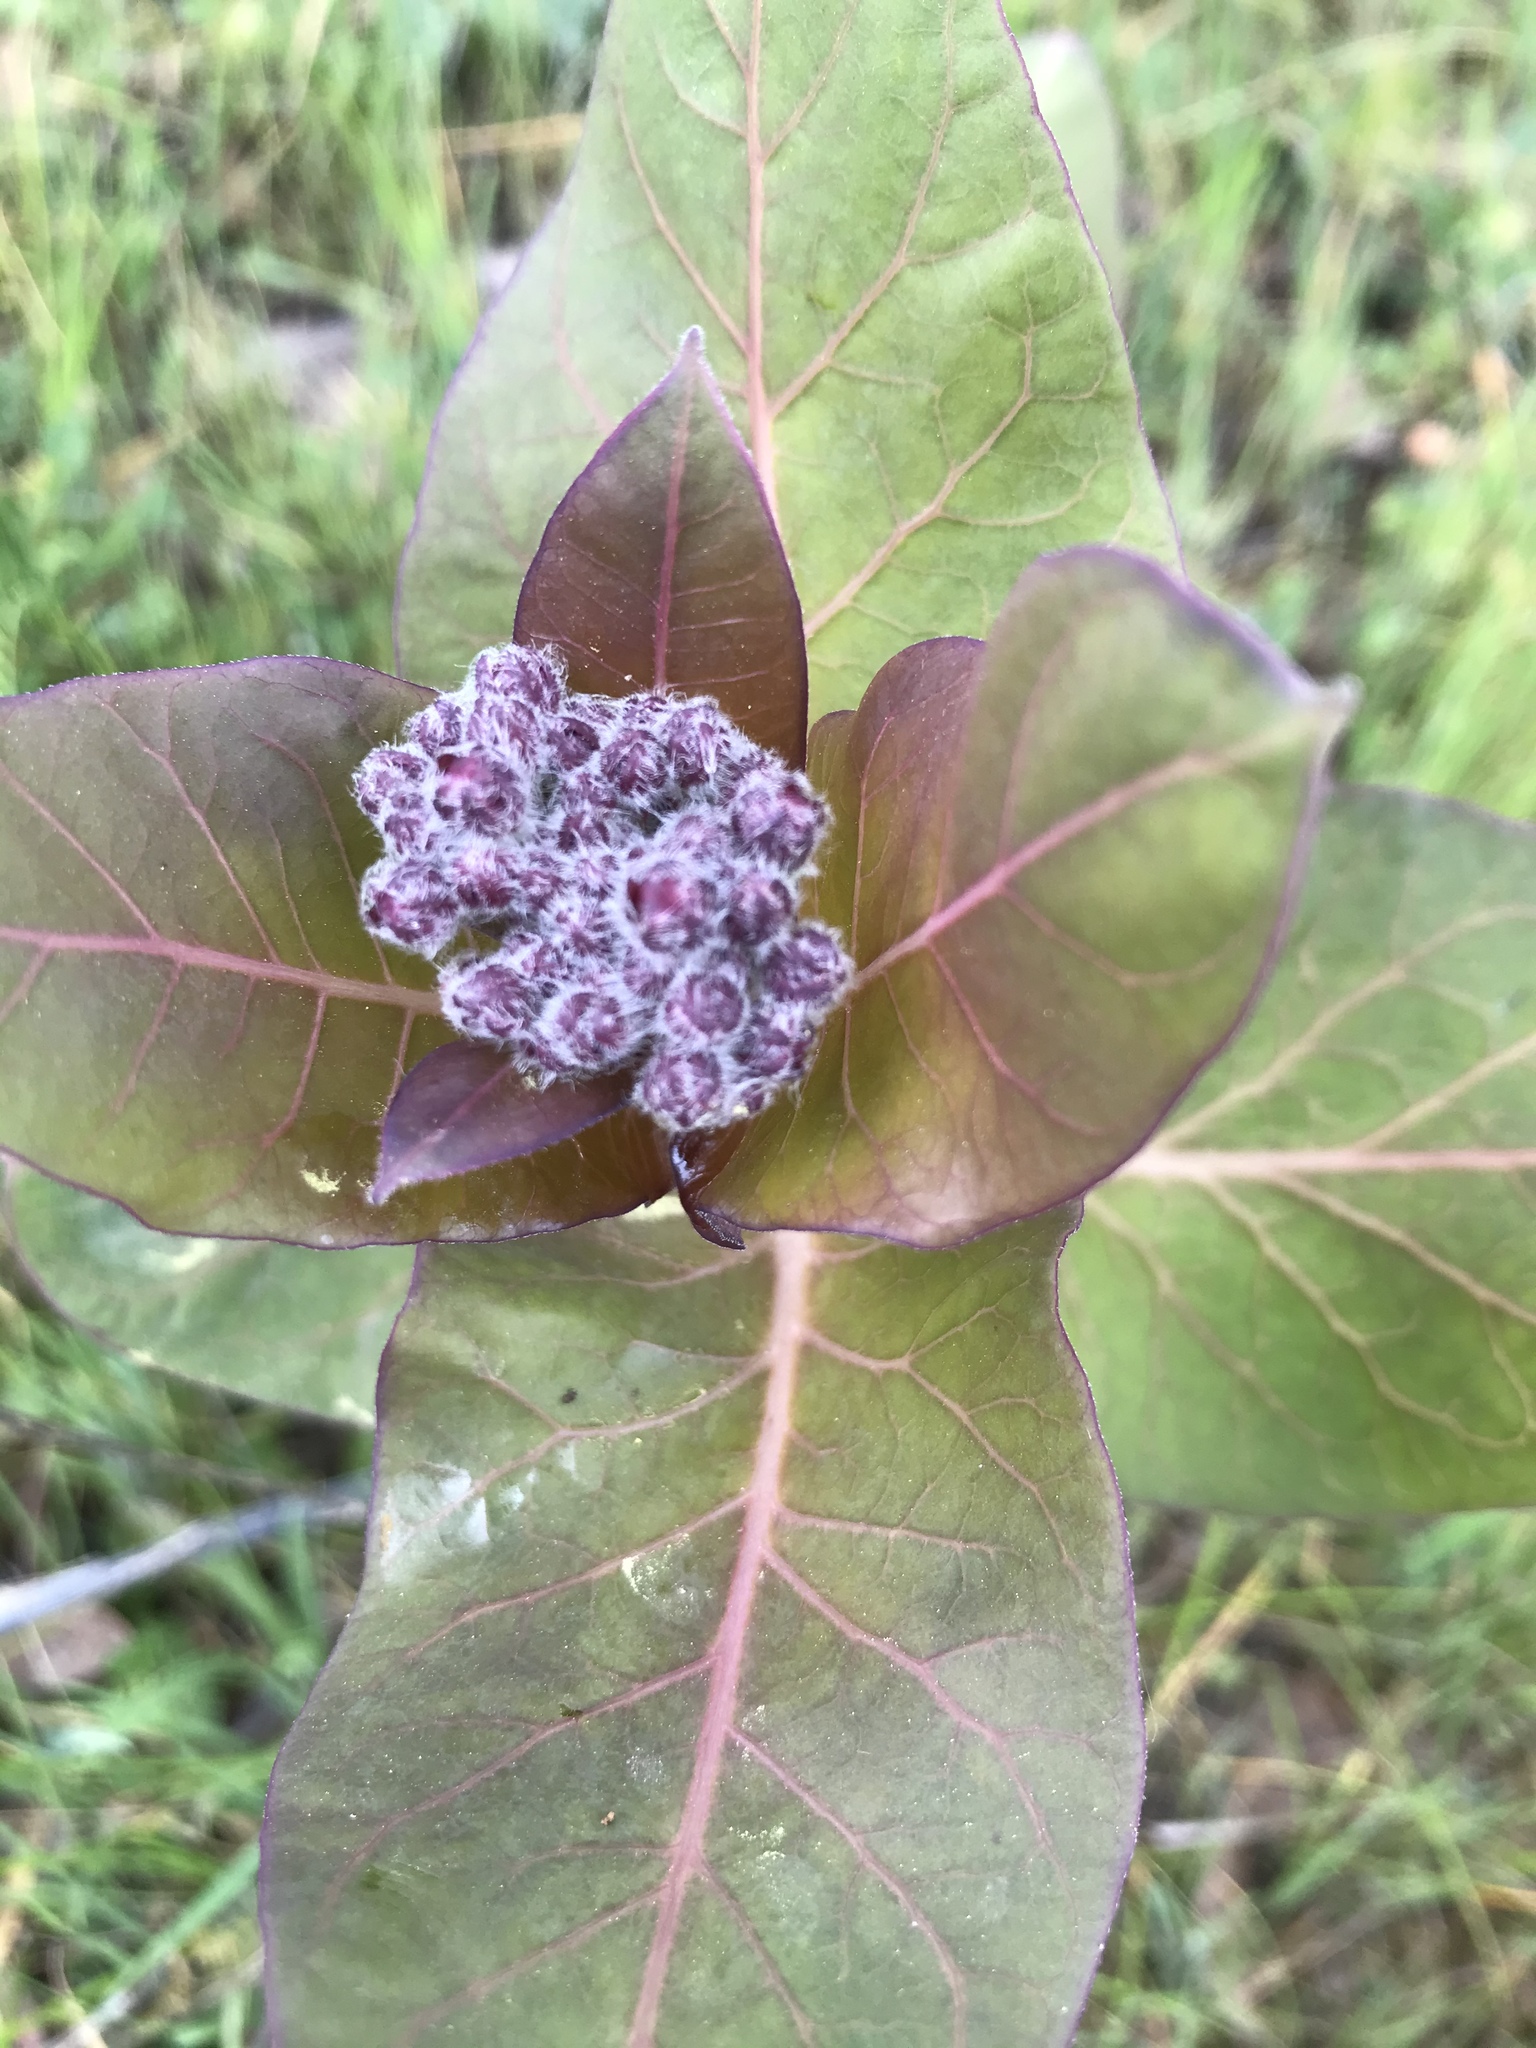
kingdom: Plantae
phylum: Tracheophyta
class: Magnoliopsida
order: Gentianales
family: Apocynaceae
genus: Asclepias
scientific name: Asclepias cordifolia
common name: Purple milkweed
